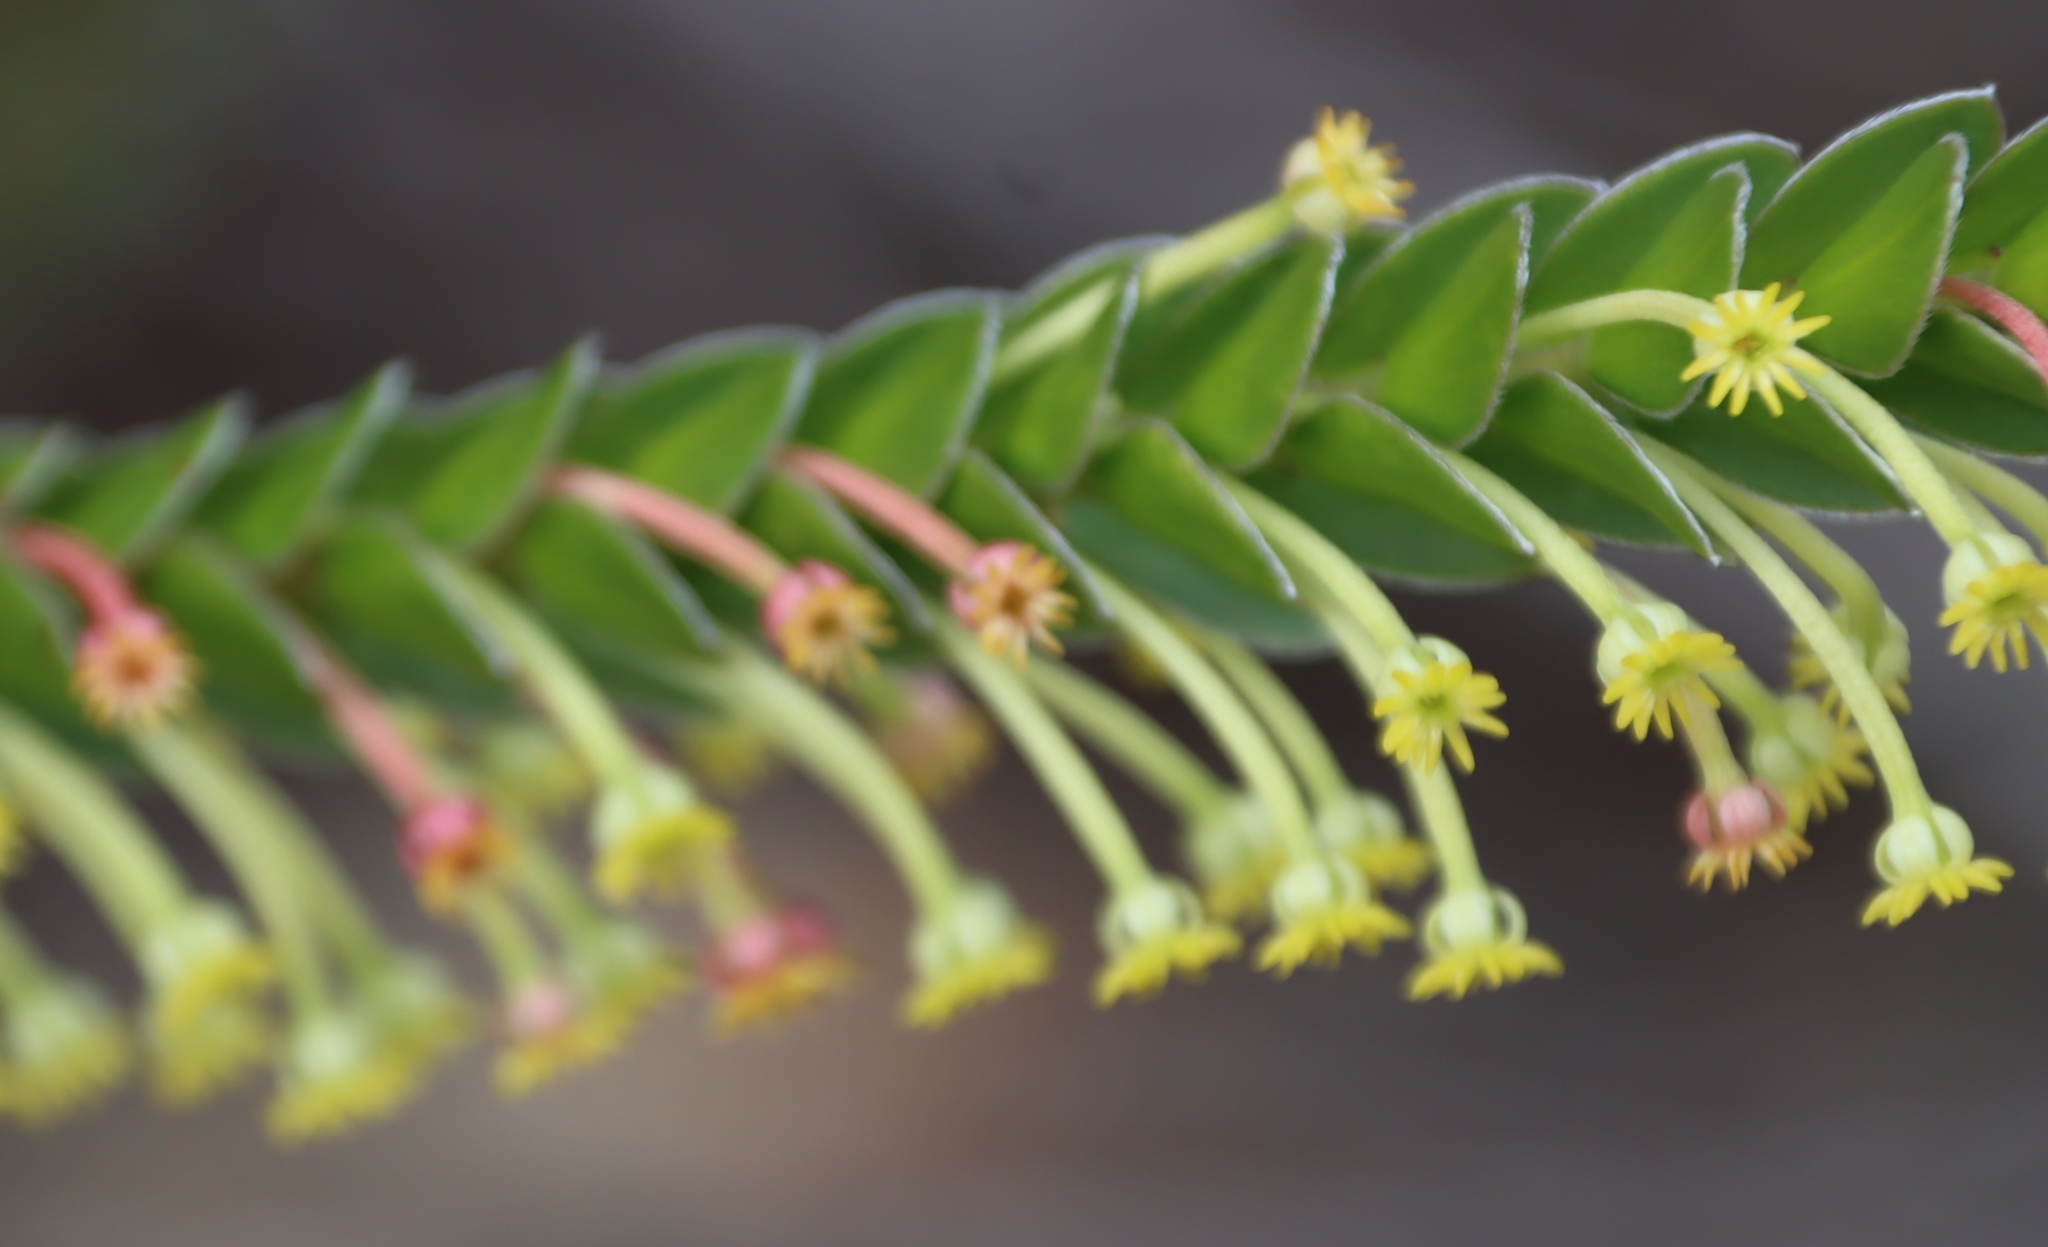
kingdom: Plantae
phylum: Tracheophyta
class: Magnoliopsida
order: Malvales
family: Thymelaeaceae
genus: Struthiola
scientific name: Struthiola argentea
